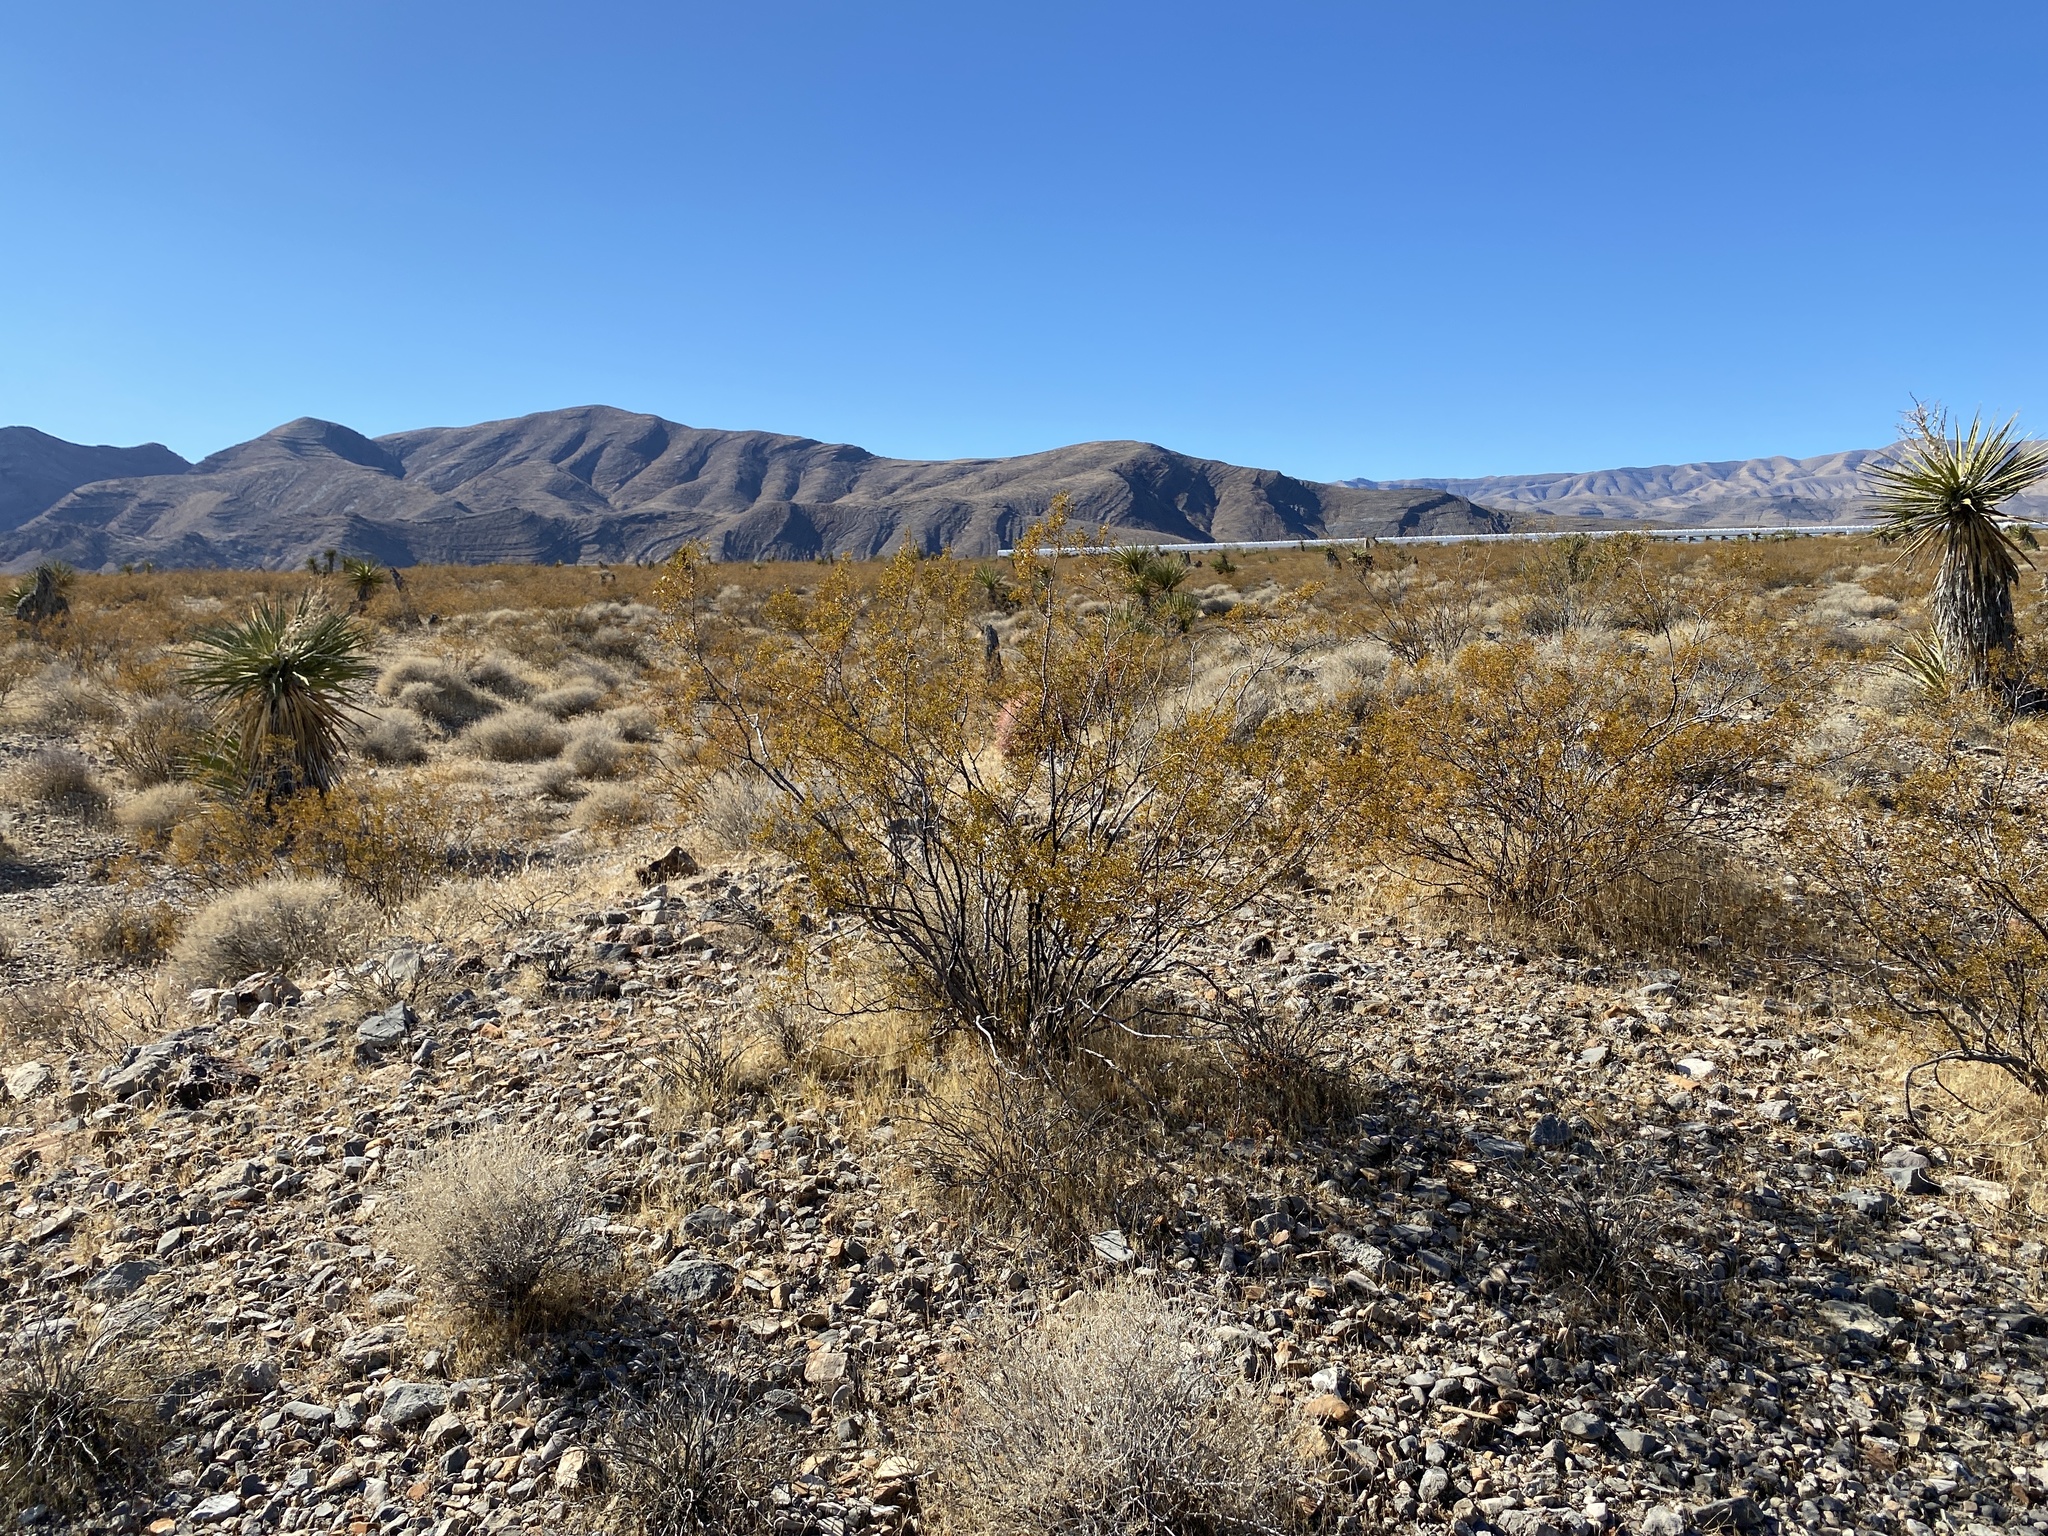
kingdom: Plantae
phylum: Tracheophyta
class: Magnoliopsida
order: Zygophyllales
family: Zygophyllaceae
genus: Larrea
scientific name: Larrea tridentata
